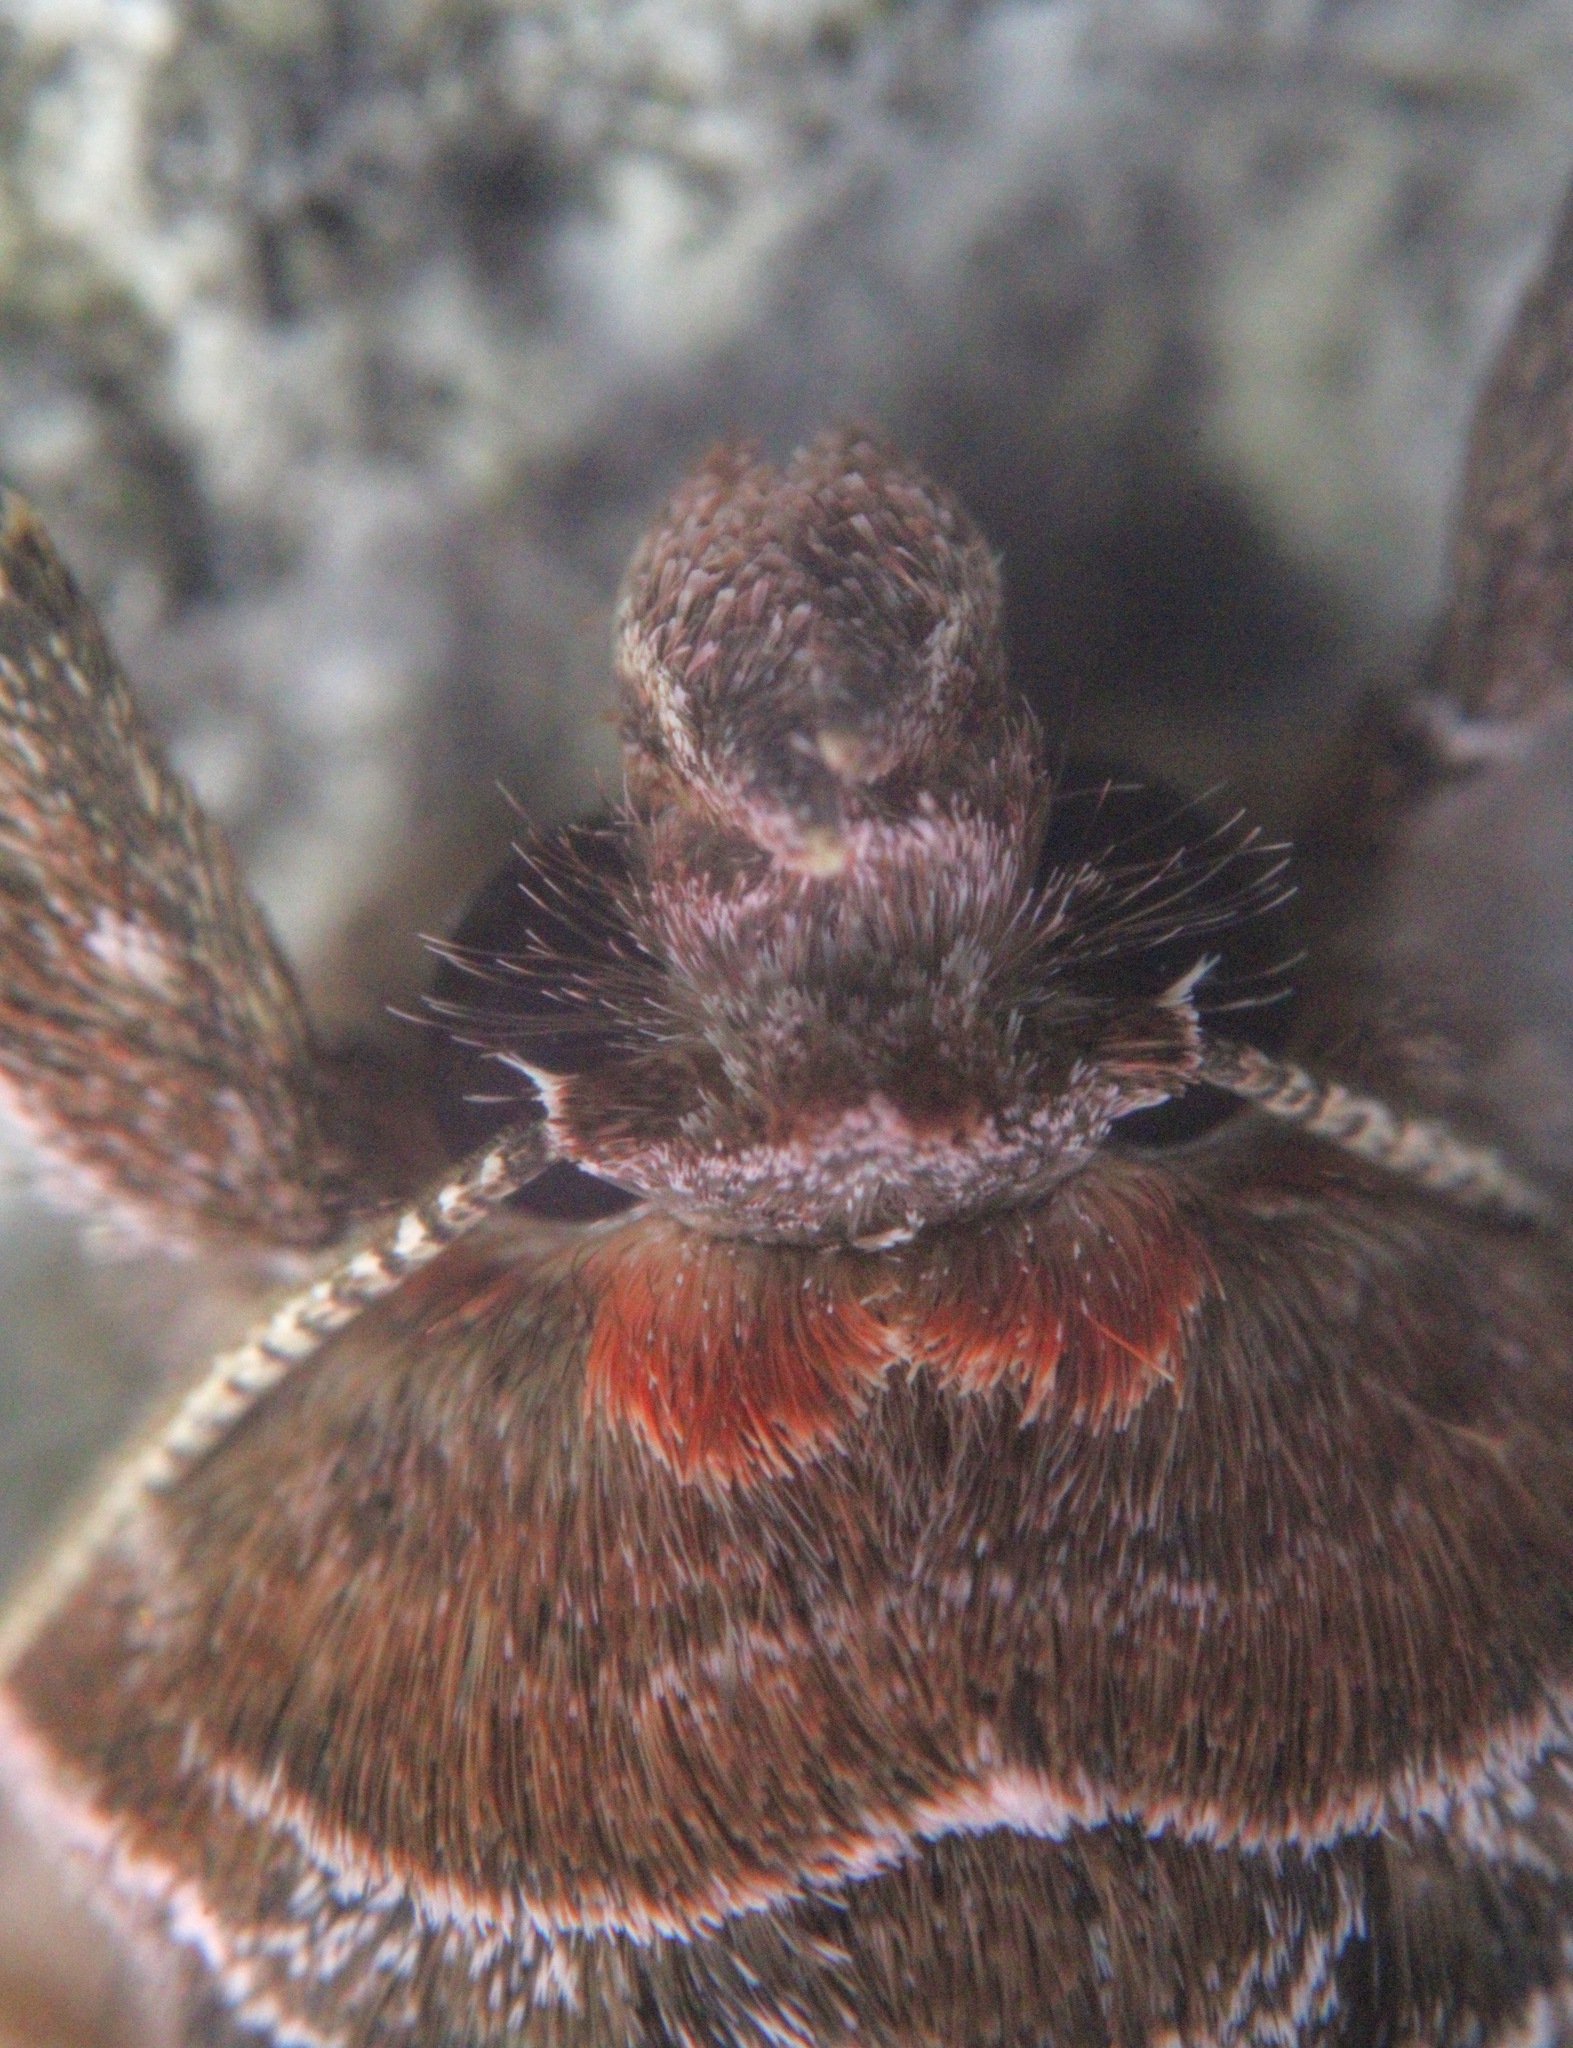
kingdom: Animalia
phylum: Arthropoda
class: Insecta
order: Lepidoptera
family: Noctuidae
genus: Autographa
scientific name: Autographa precationis
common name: Common looper moth
